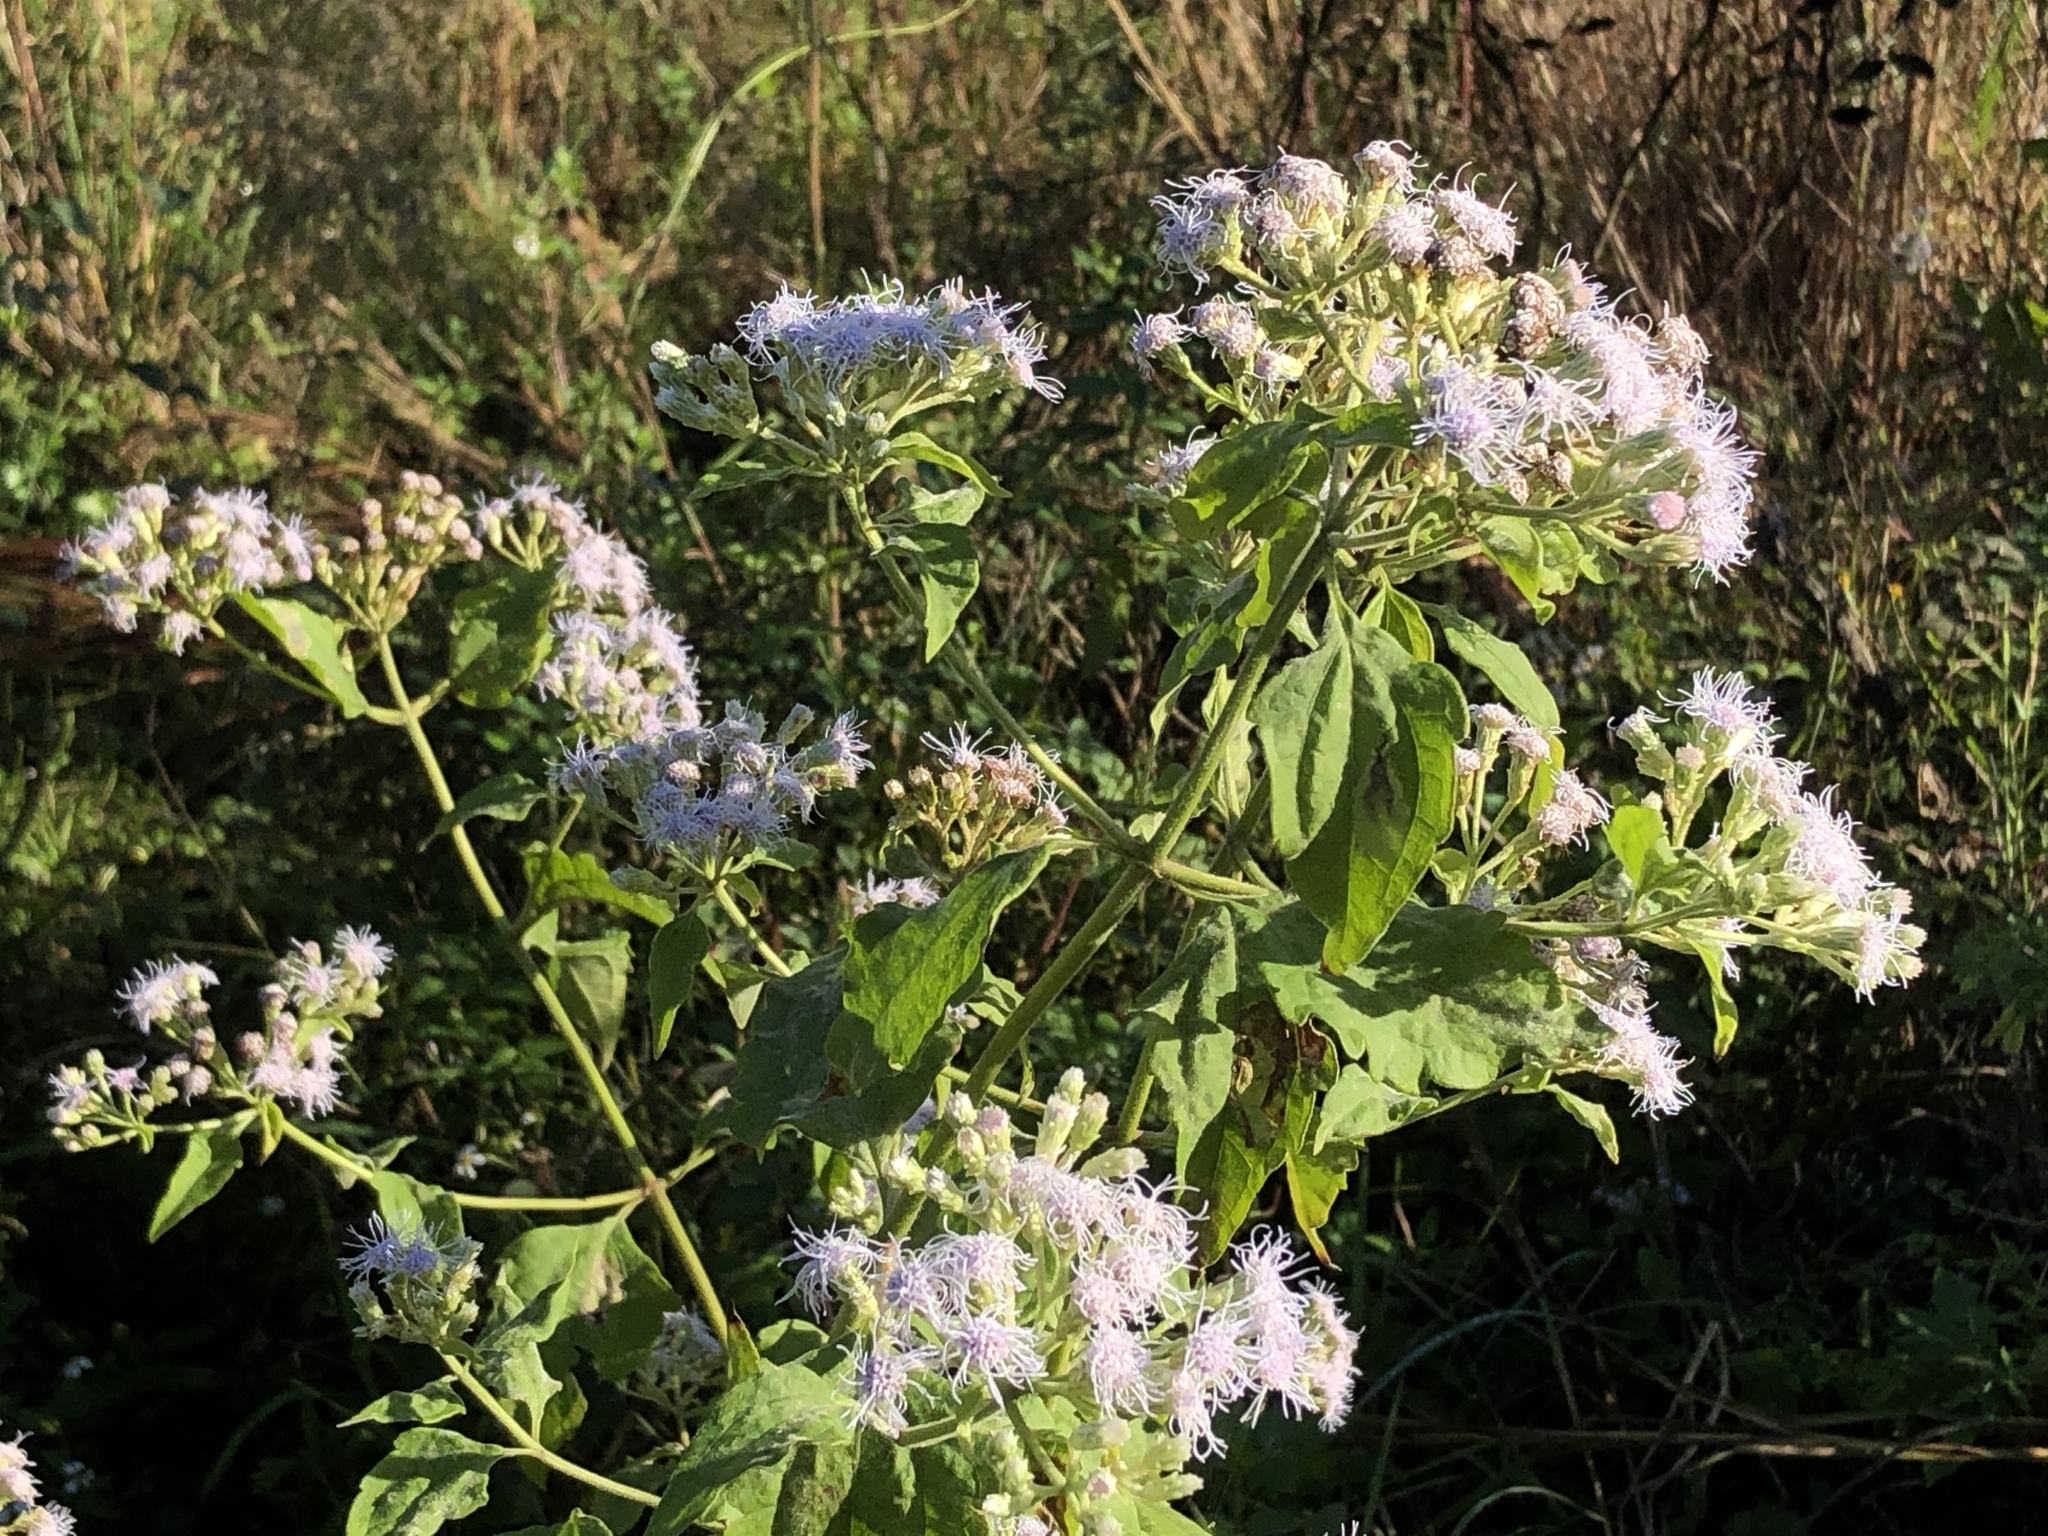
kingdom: Plantae
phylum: Tracheophyta
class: Magnoliopsida
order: Asterales
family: Asteraceae
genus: Chromolaena
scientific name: Chromolaena odorata
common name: Siamweed
